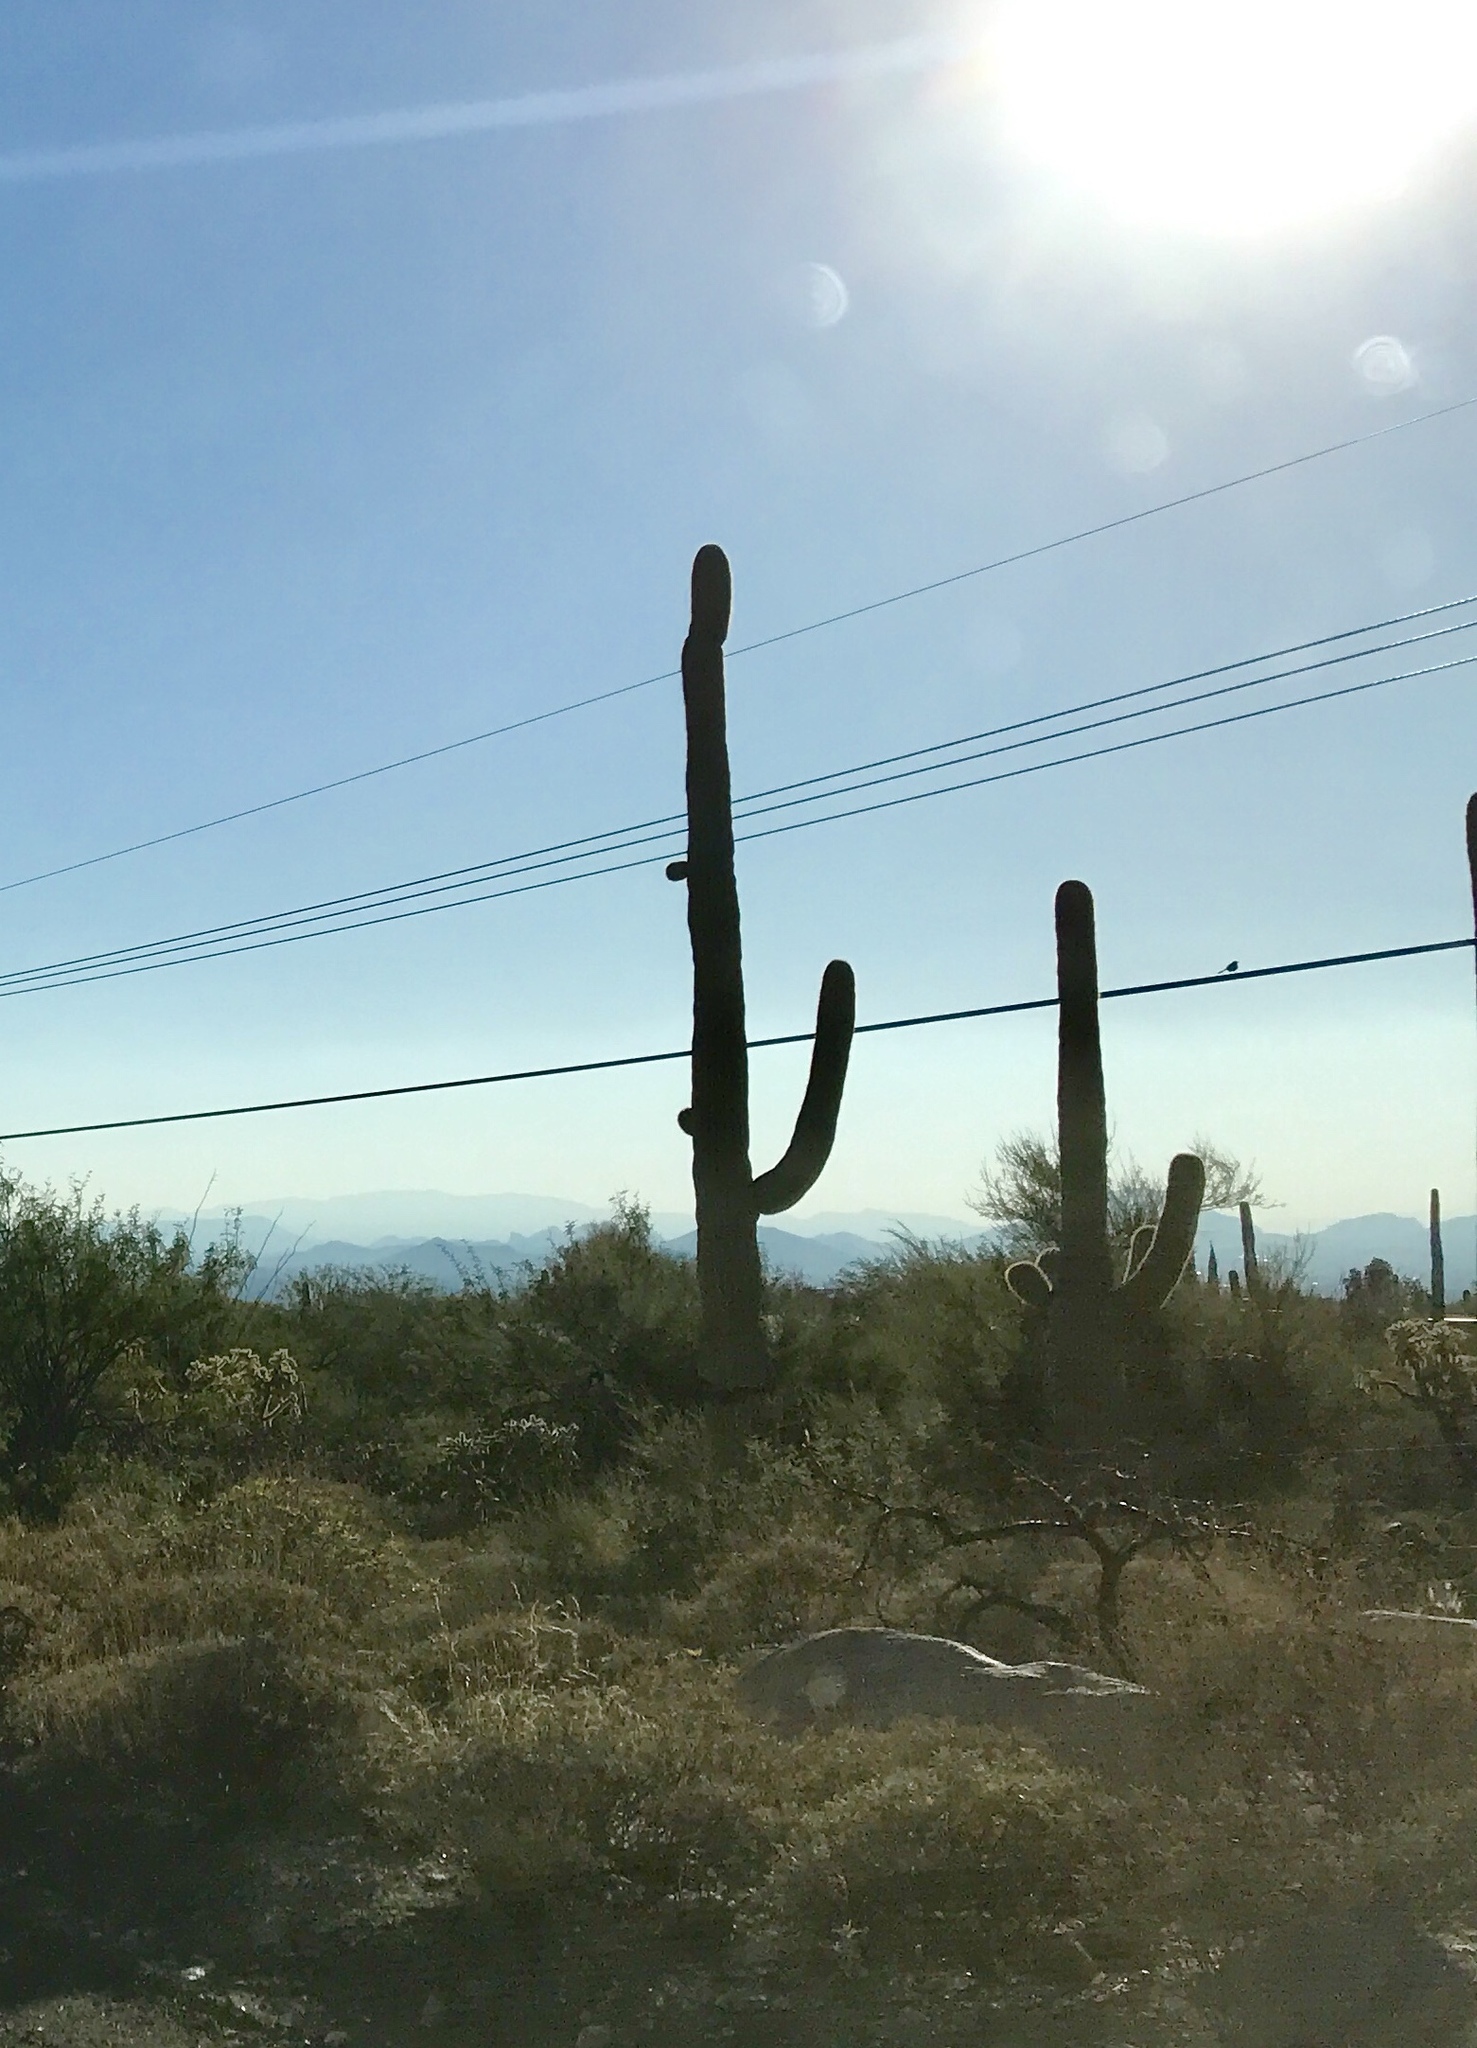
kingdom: Plantae
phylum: Tracheophyta
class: Magnoliopsida
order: Caryophyllales
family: Cactaceae
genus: Carnegiea
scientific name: Carnegiea gigantea
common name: Saguaro
